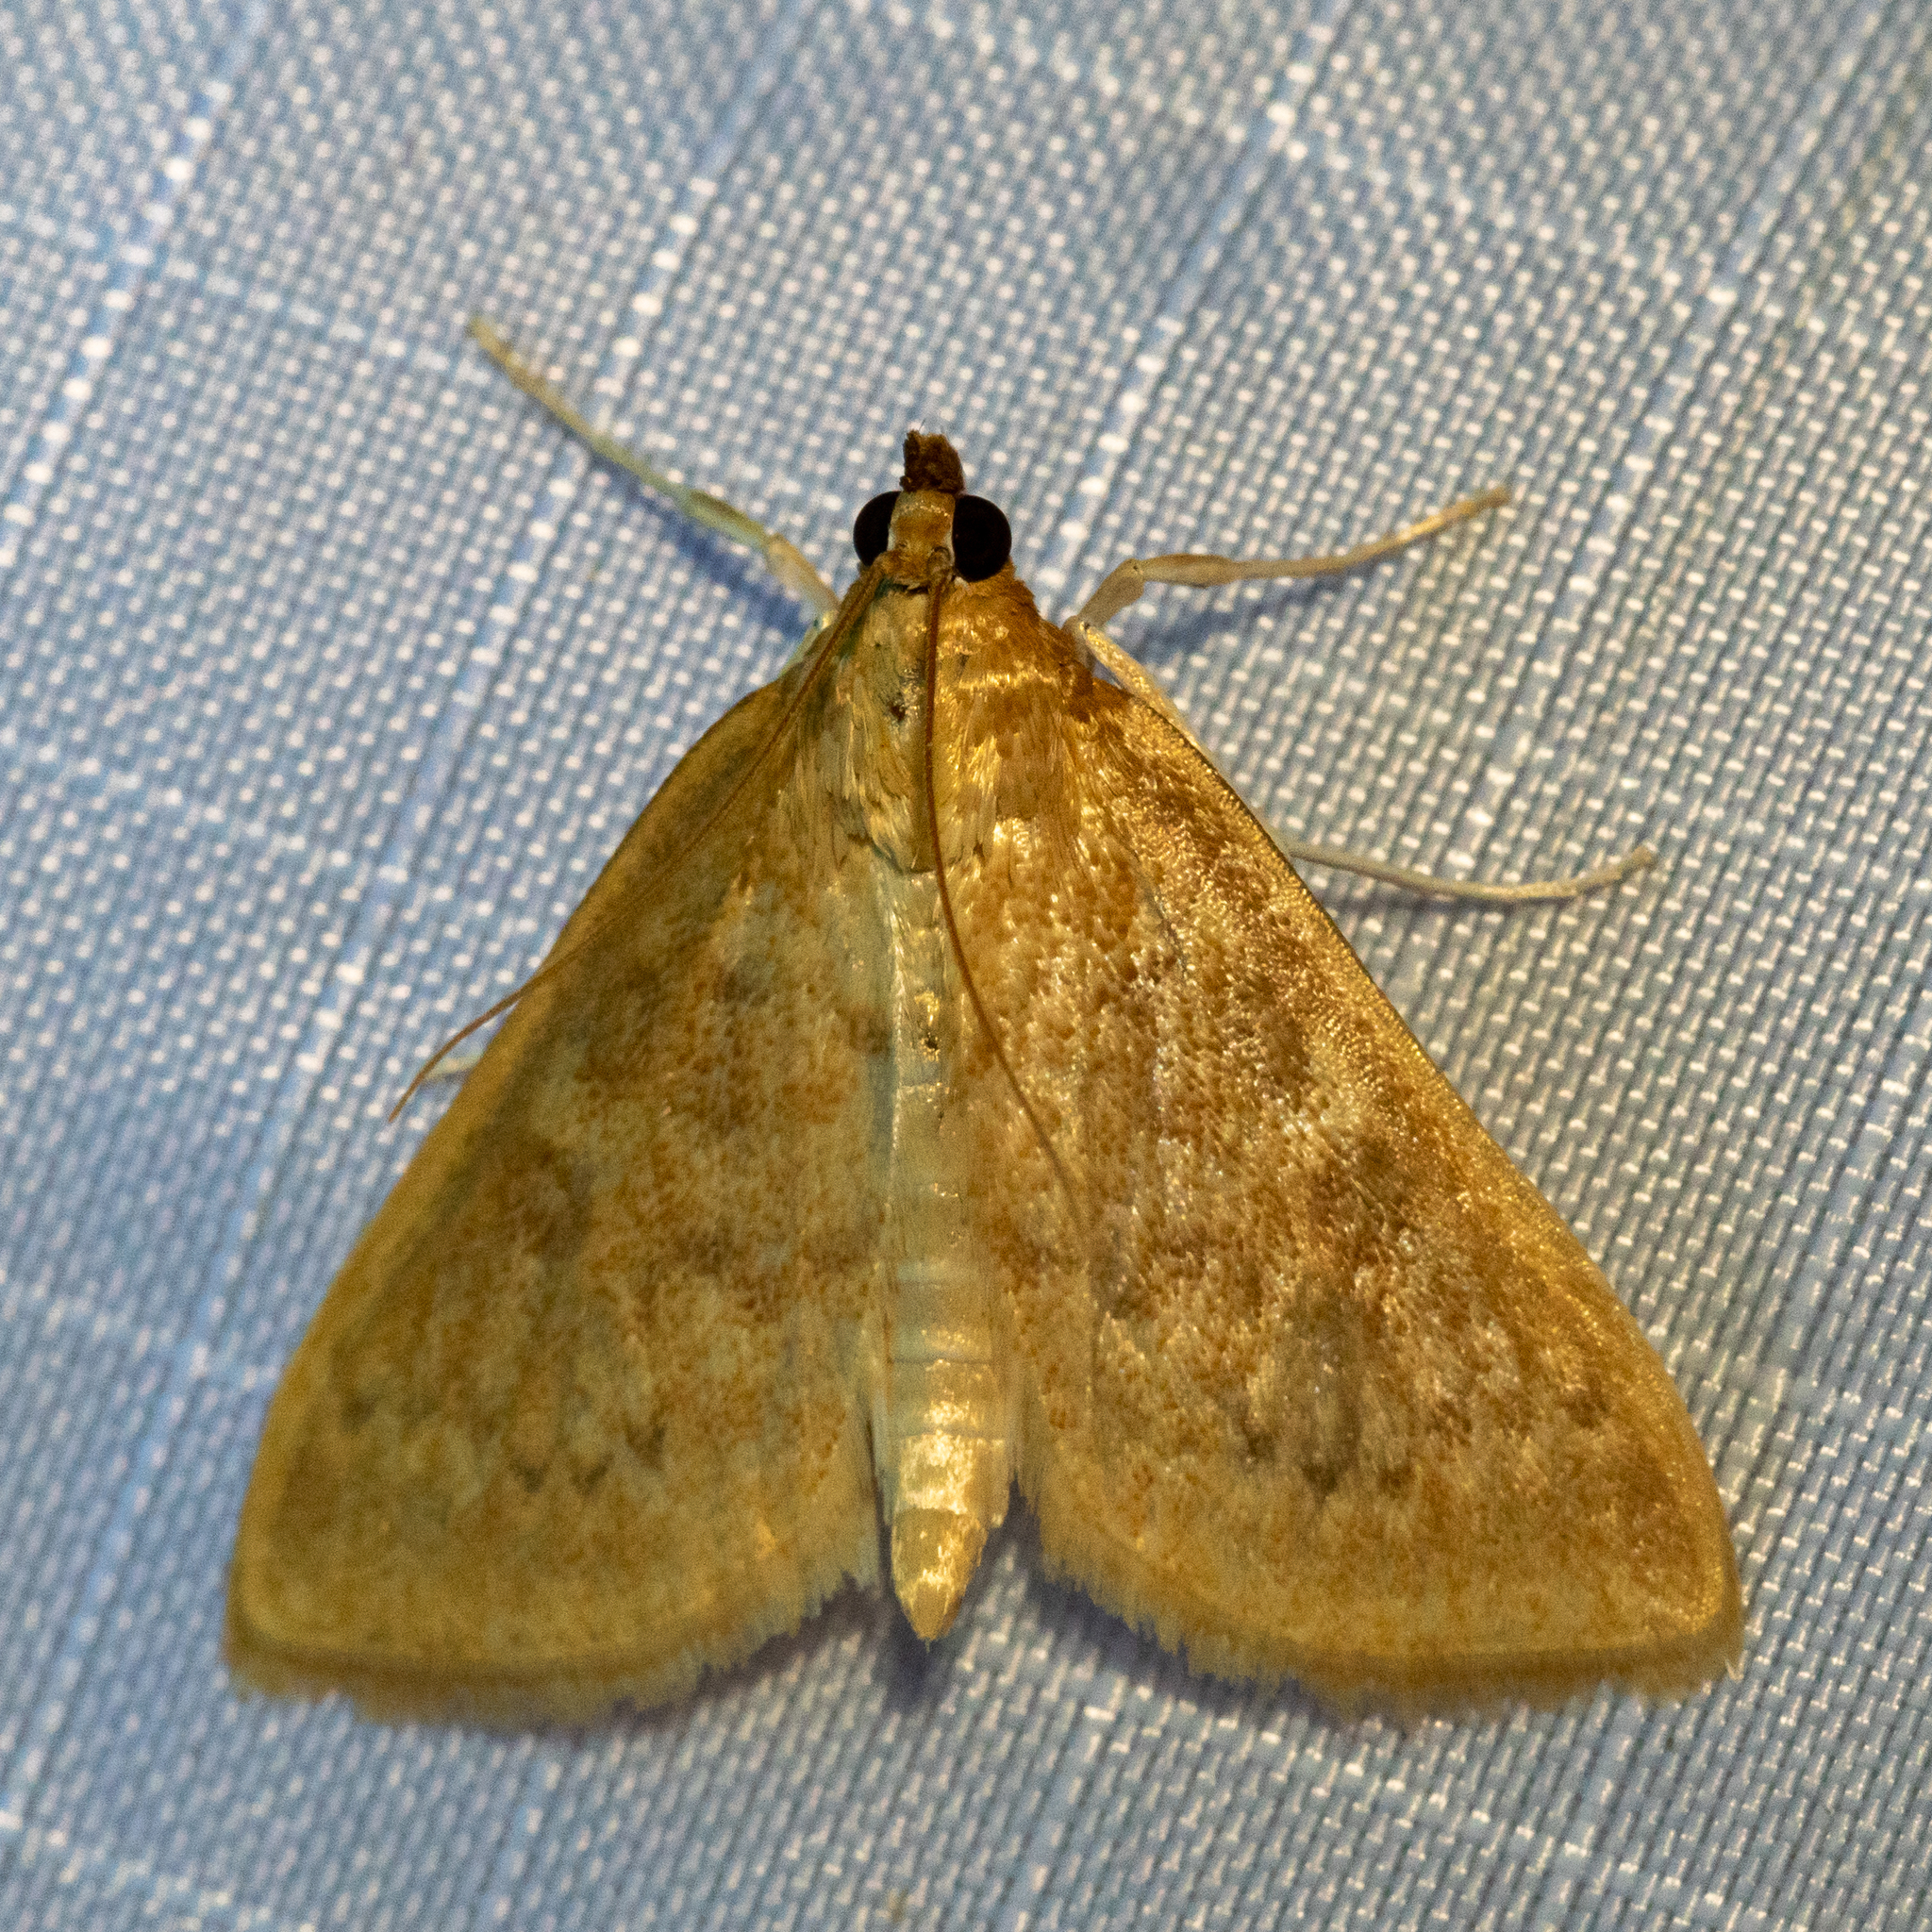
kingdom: Animalia
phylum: Arthropoda
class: Insecta
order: Lepidoptera
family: Crambidae
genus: Anania
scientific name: Anania Framinghamia helvalis
